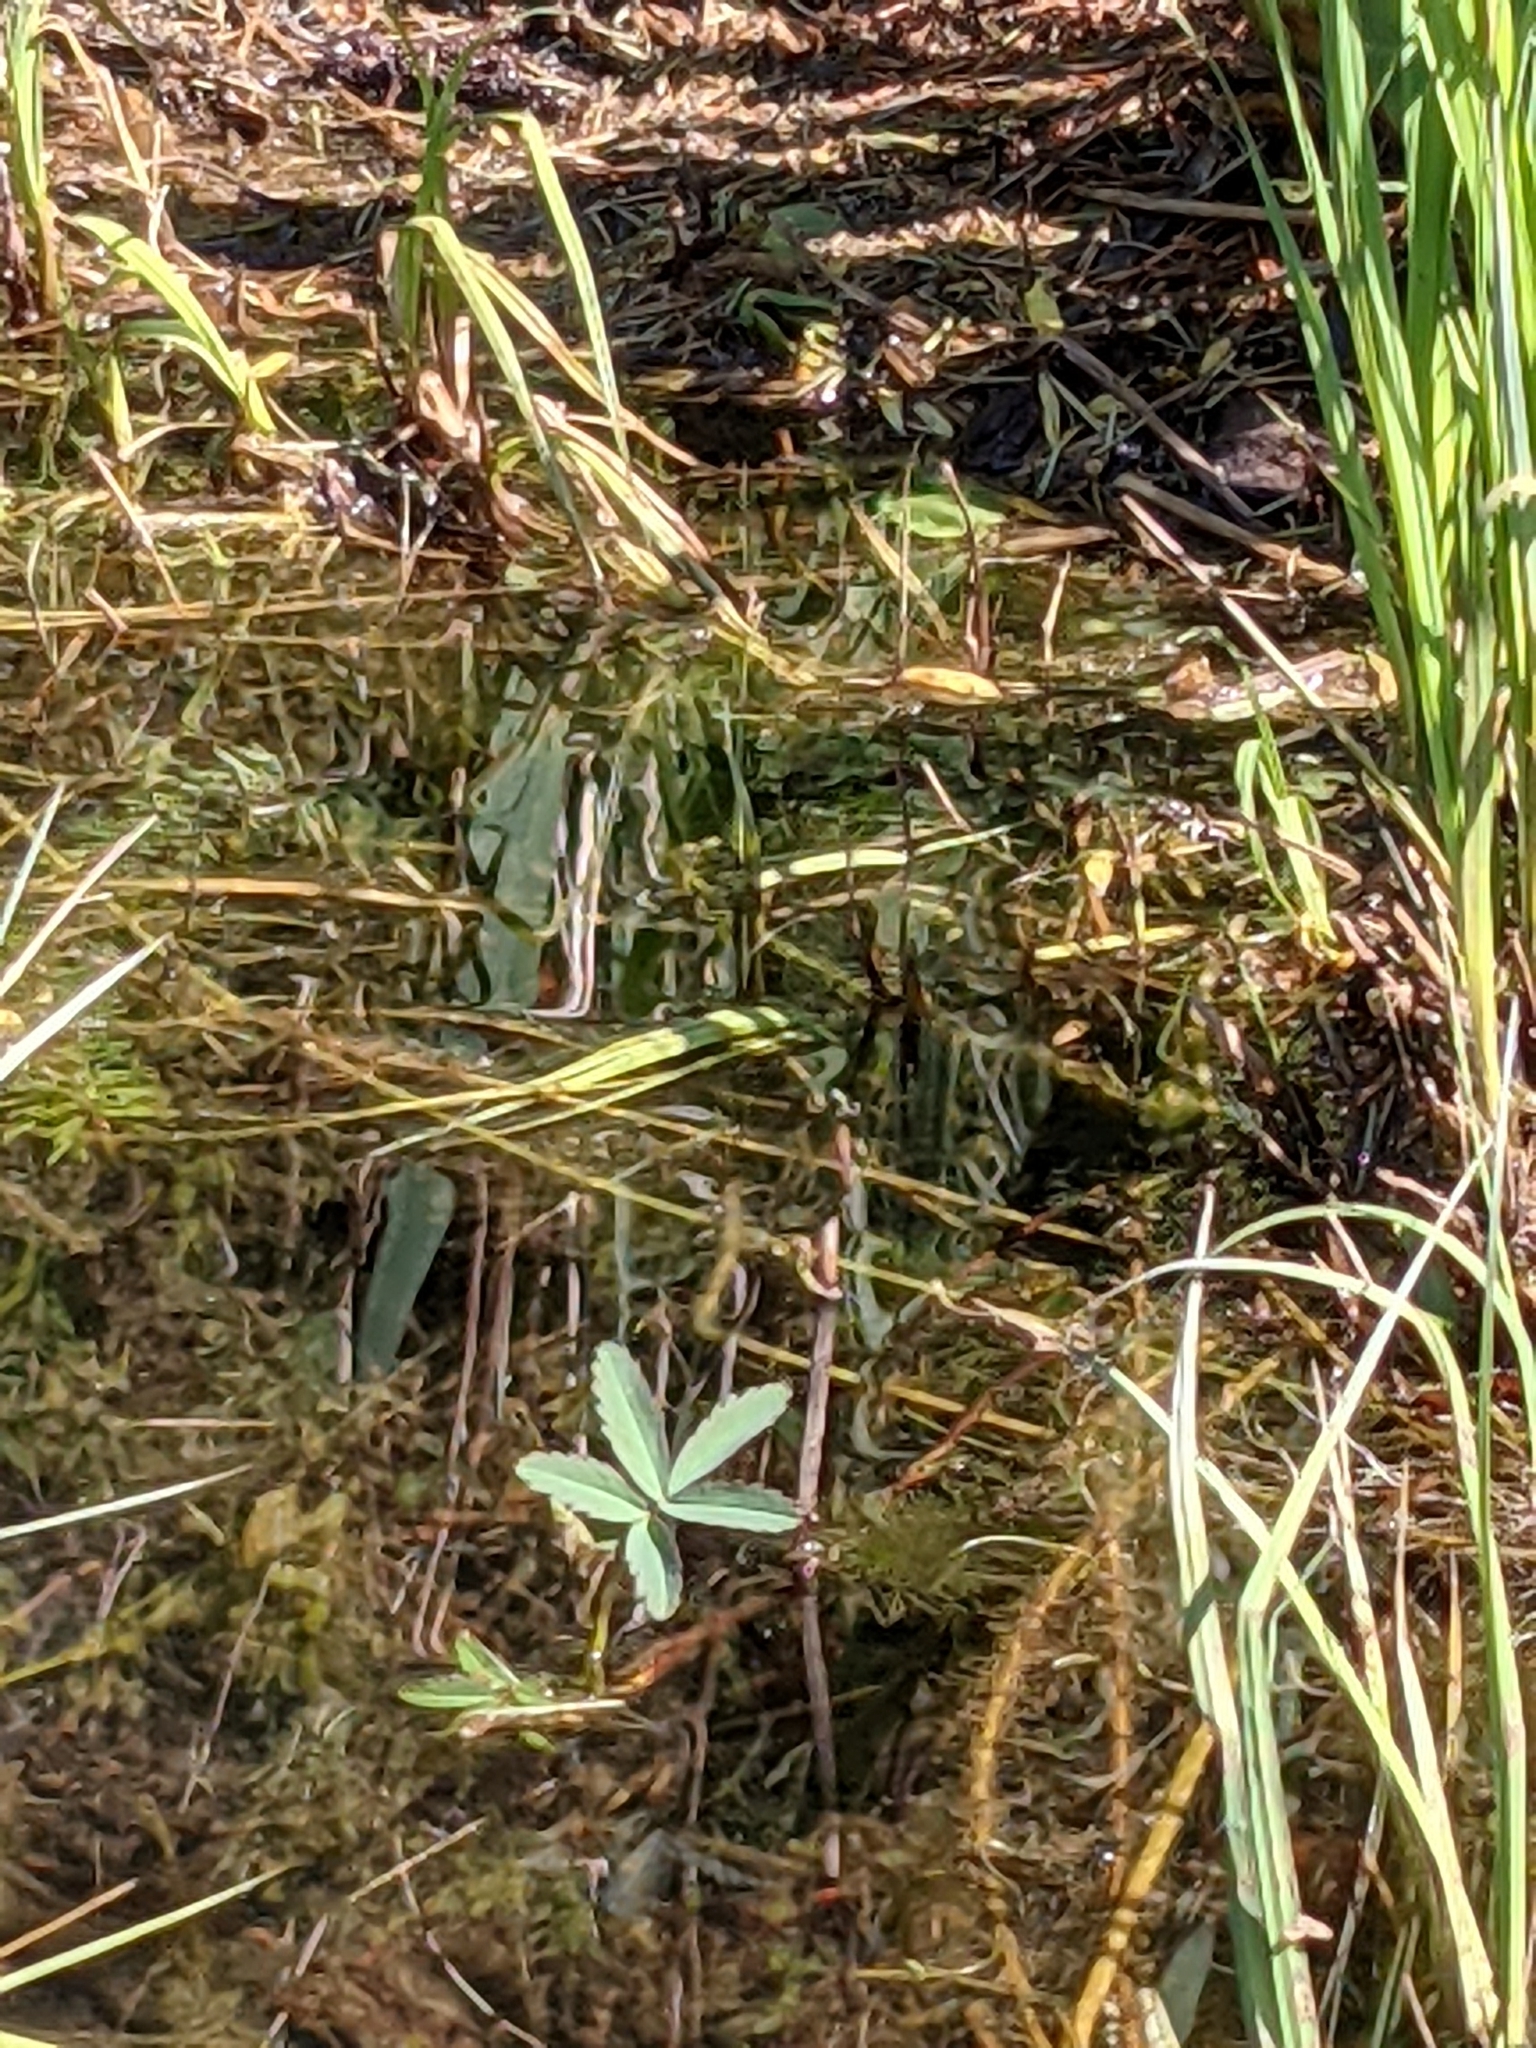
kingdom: Plantae
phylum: Tracheophyta
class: Magnoliopsida
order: Rosales
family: Rosaceae
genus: Comarum
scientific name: Comarum palustre
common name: Marsh cinquefoil
